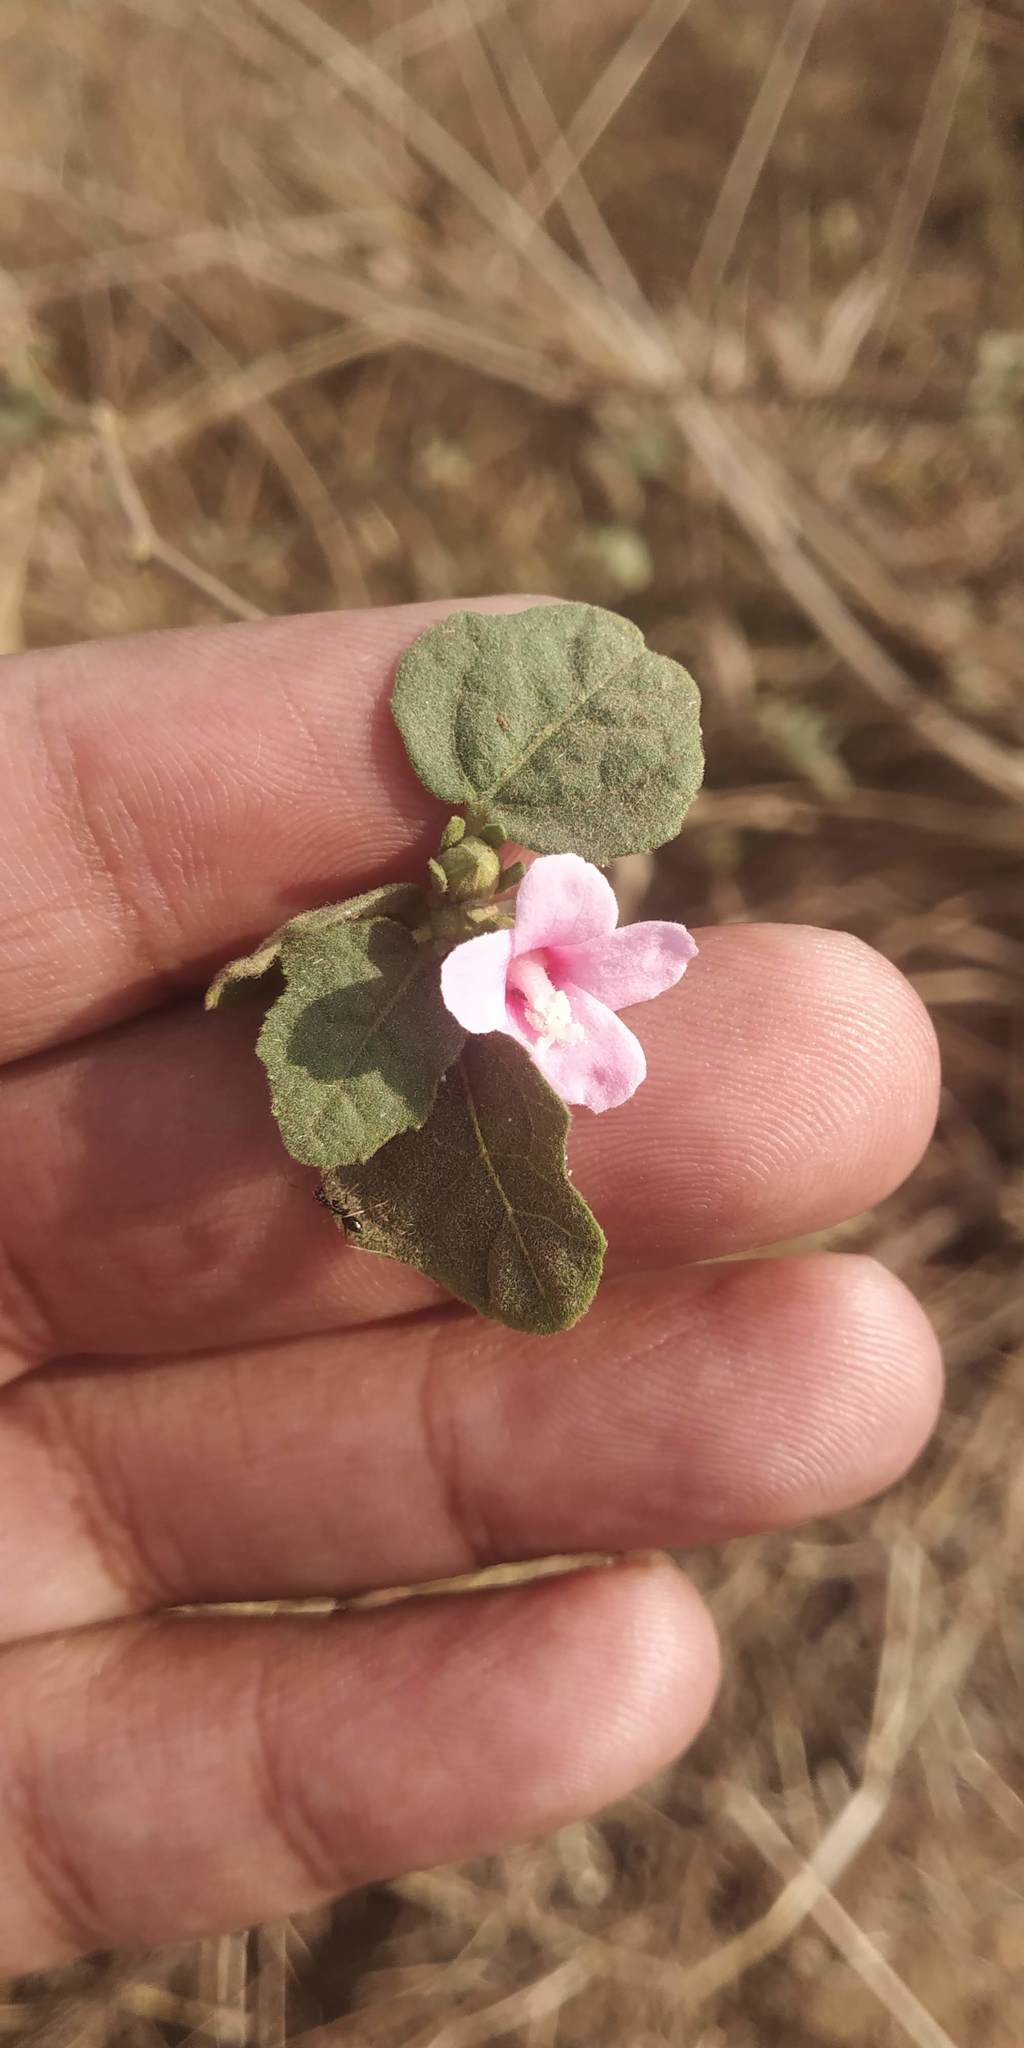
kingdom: Plantae
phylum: Tracheophyta
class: Magnoliopsida
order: Malvales
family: Malvaceae
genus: Urena
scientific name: Urena lobata
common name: Caesarweed
